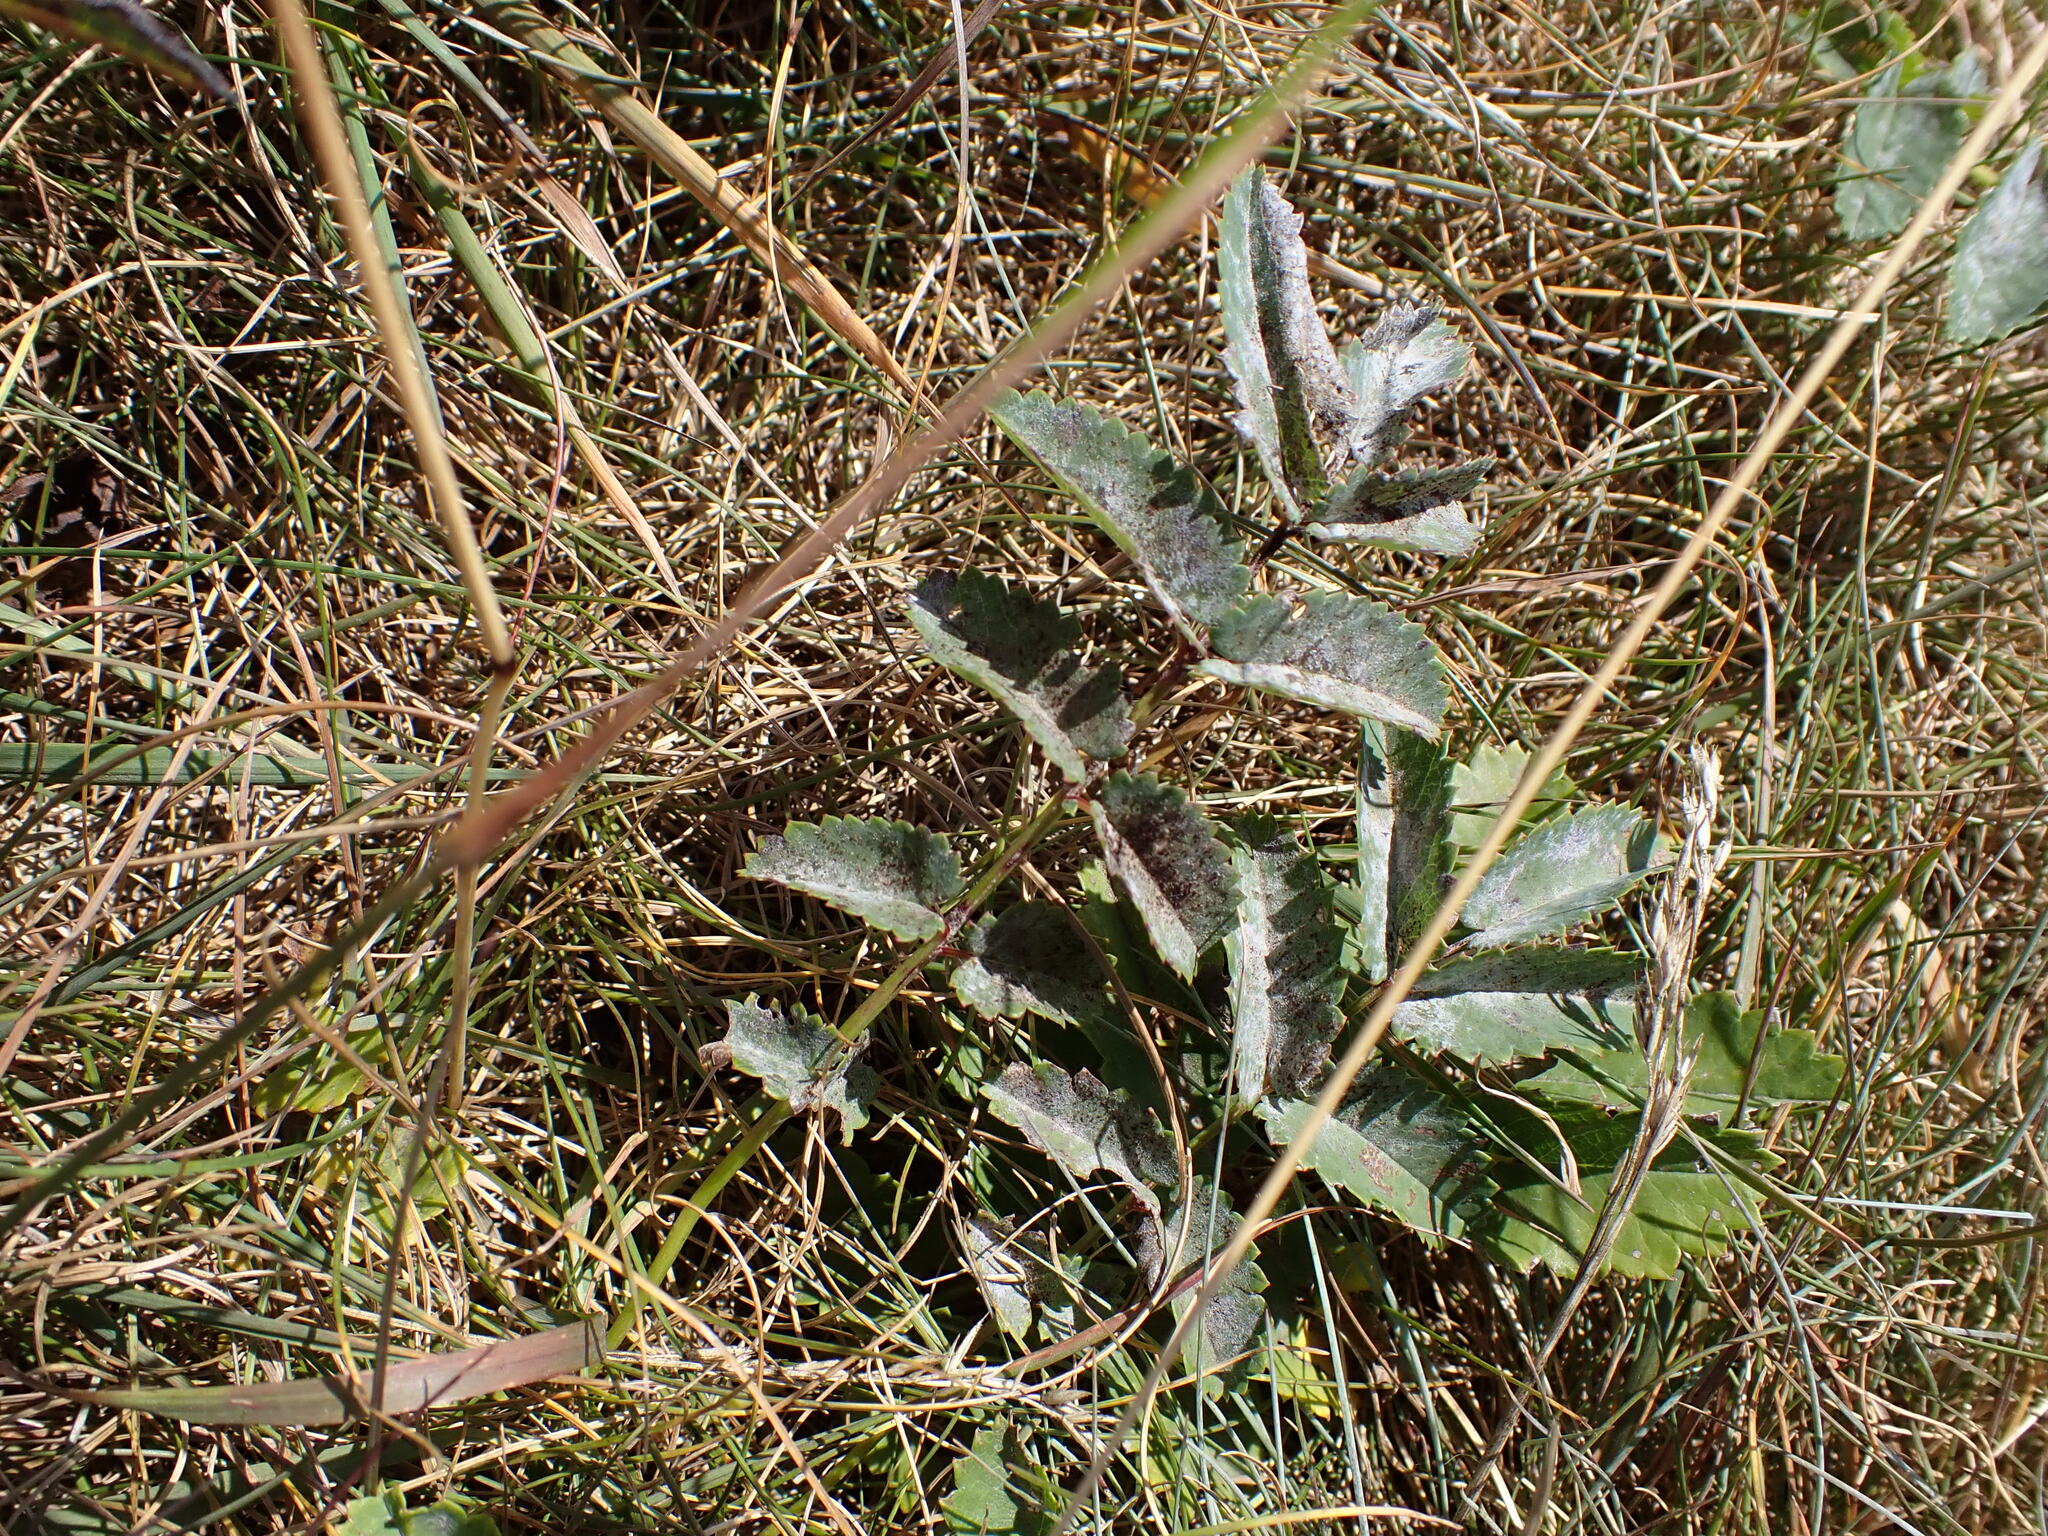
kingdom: Plantae
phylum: Tracheophyta
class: Magnoliopsida
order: Rosales
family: Rosaceae
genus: Sanguisorba
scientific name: Sanguisorba officinalis
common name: Great burnet
